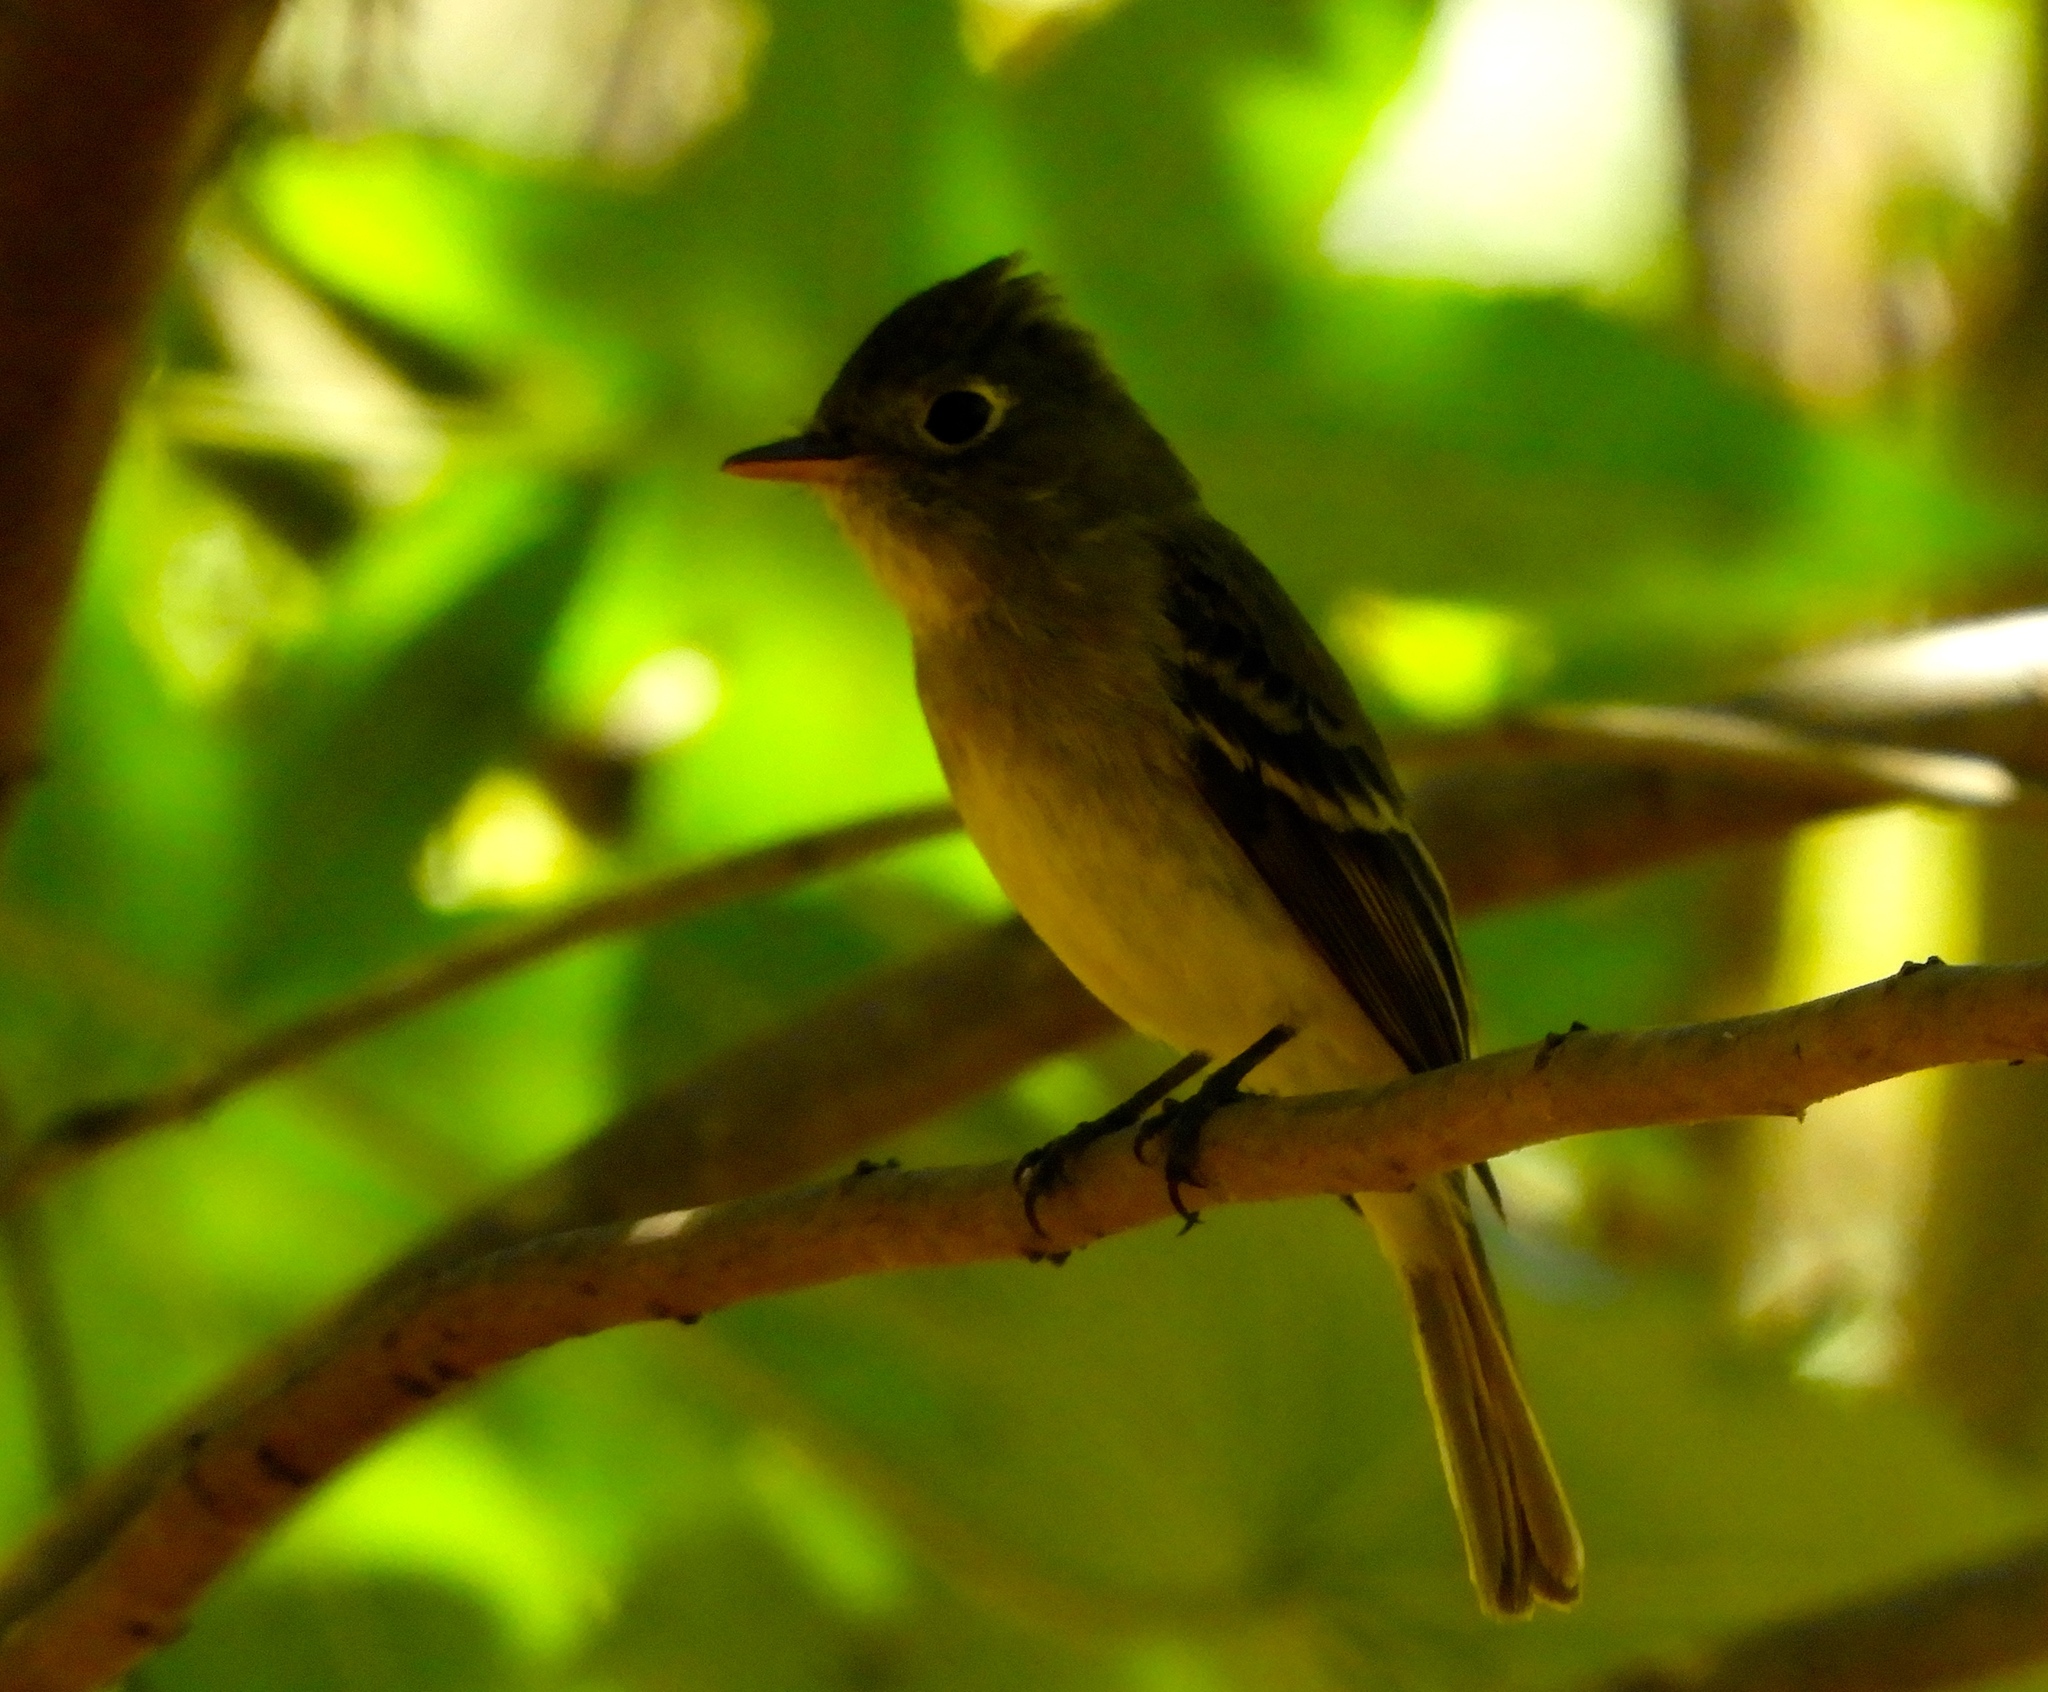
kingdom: Animalia
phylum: Chordata
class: Aves
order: Passeriformes
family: Tyrannidae
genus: Empidonax
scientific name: Empidonax
